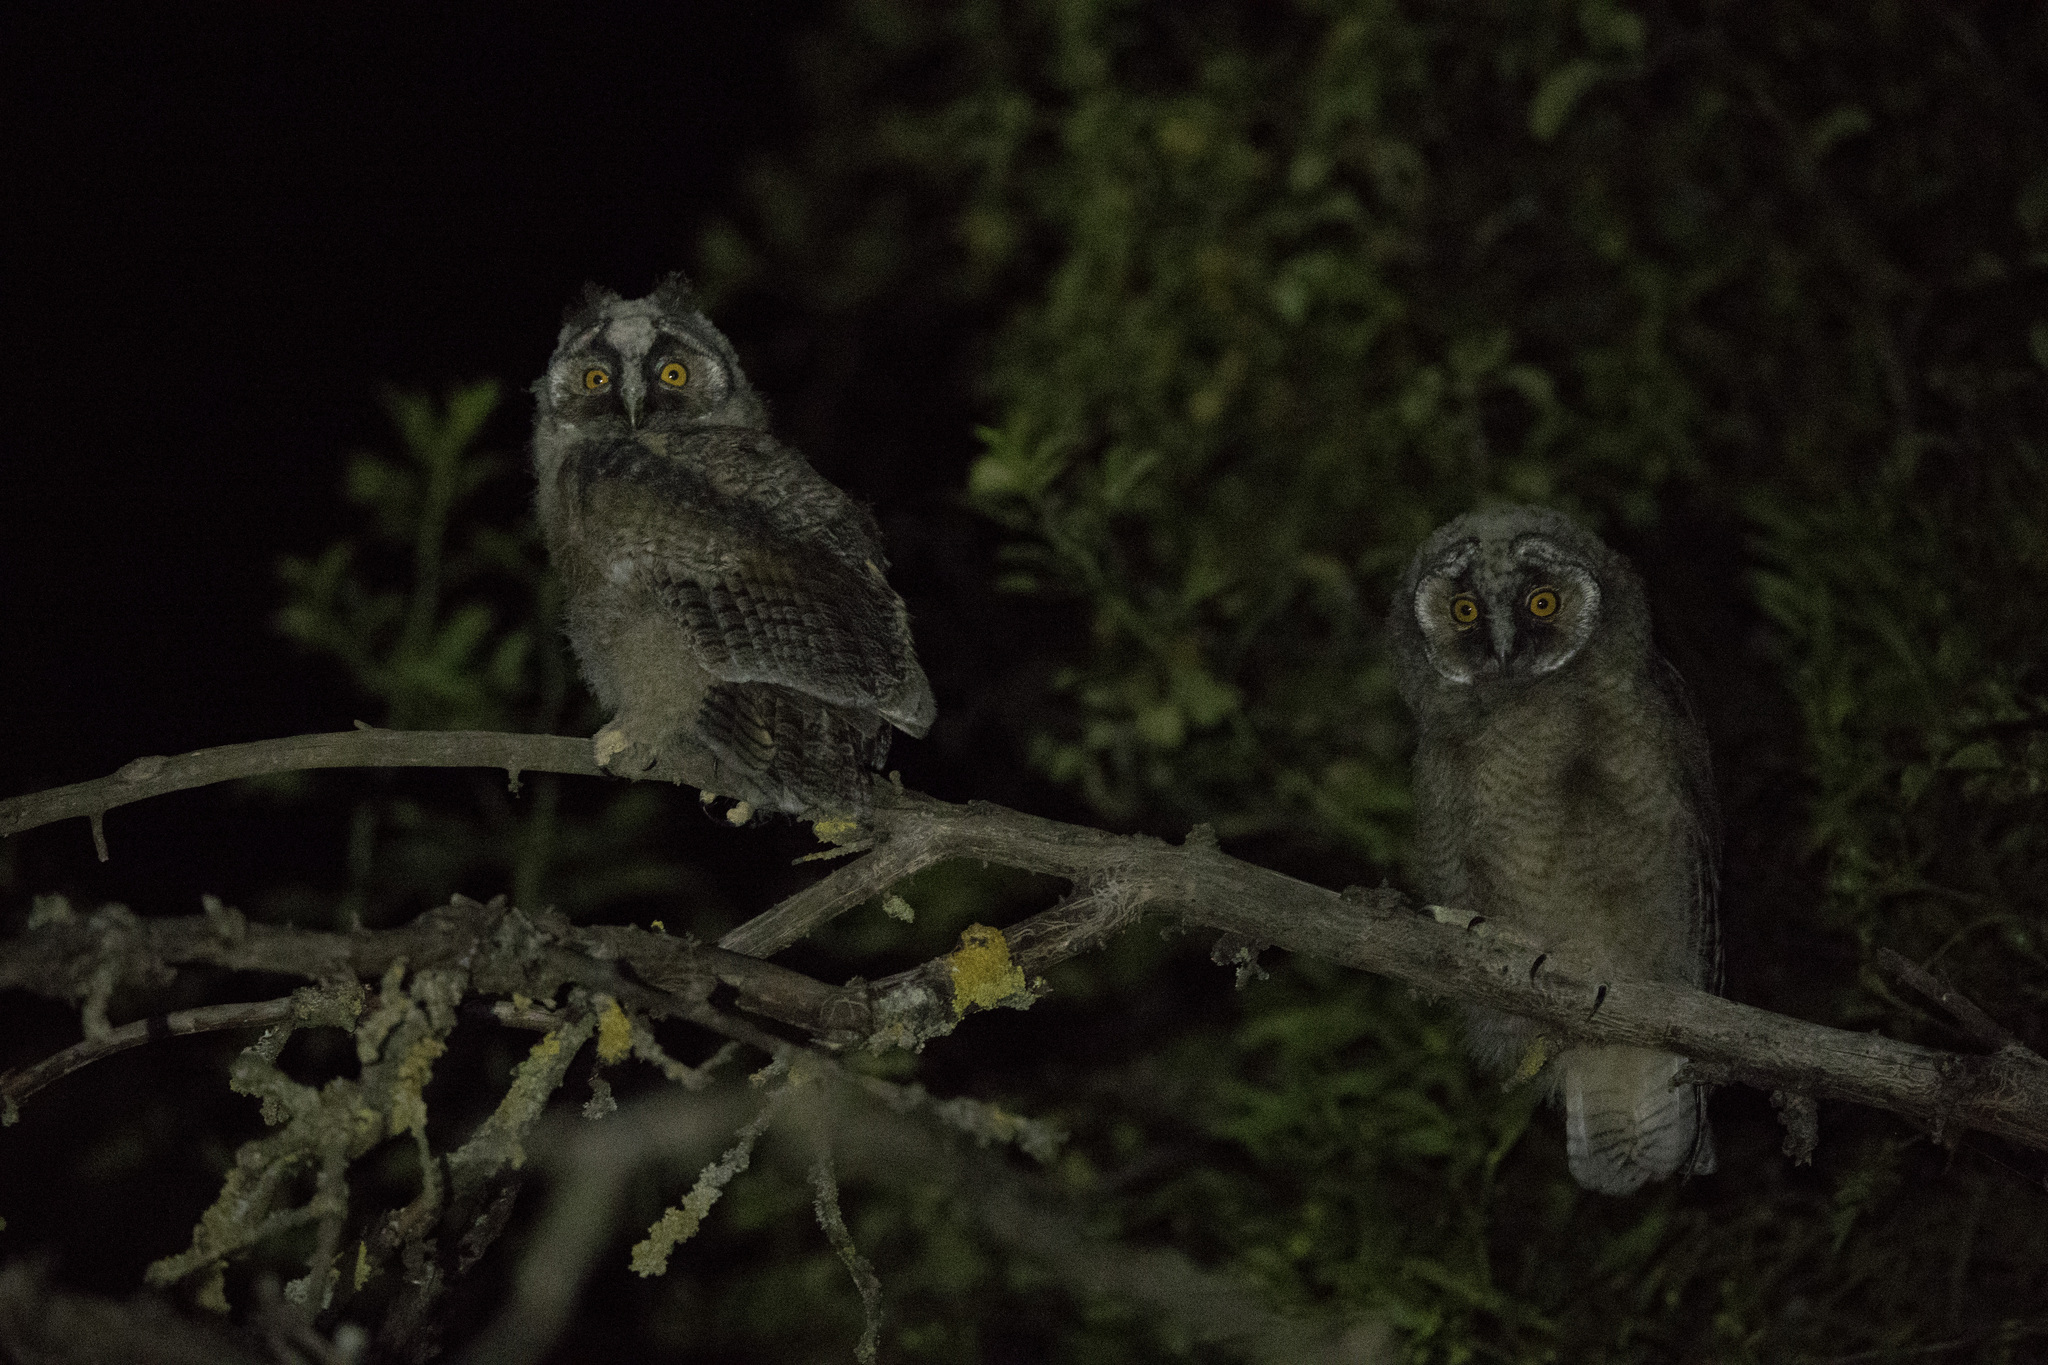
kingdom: Animalia
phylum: Chordata
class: Aves
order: Strigiformes
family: Strigidae
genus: Asio
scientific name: Asio otus
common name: Long-eared owl
